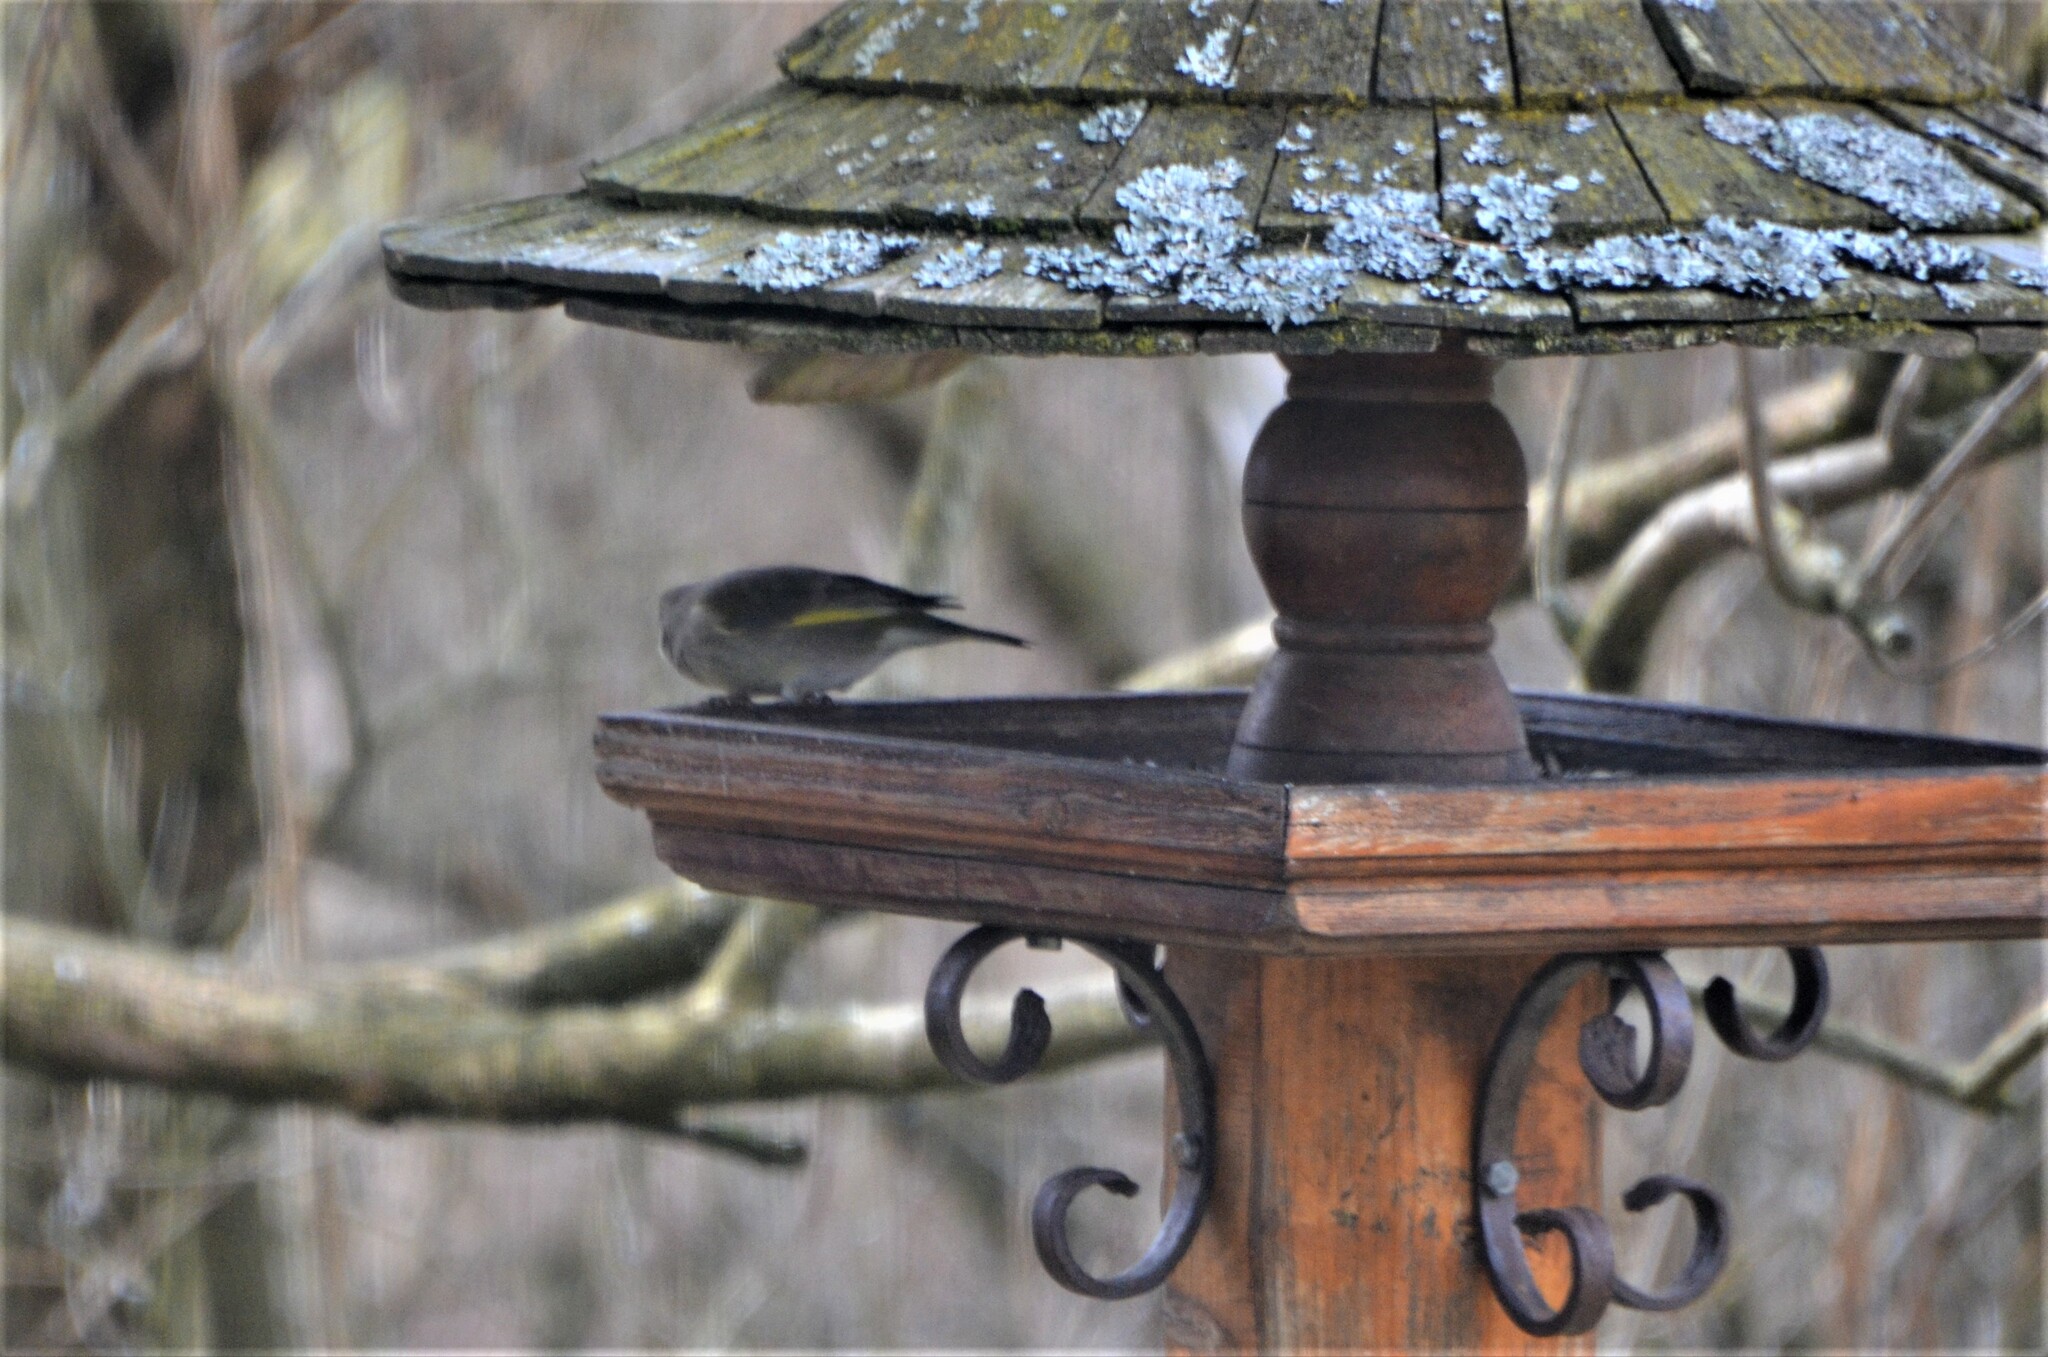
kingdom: Plantae
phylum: Tracheophyta
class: Liliopsida
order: Poales
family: Poaceae
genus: Chloris
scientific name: Chloris chloris
